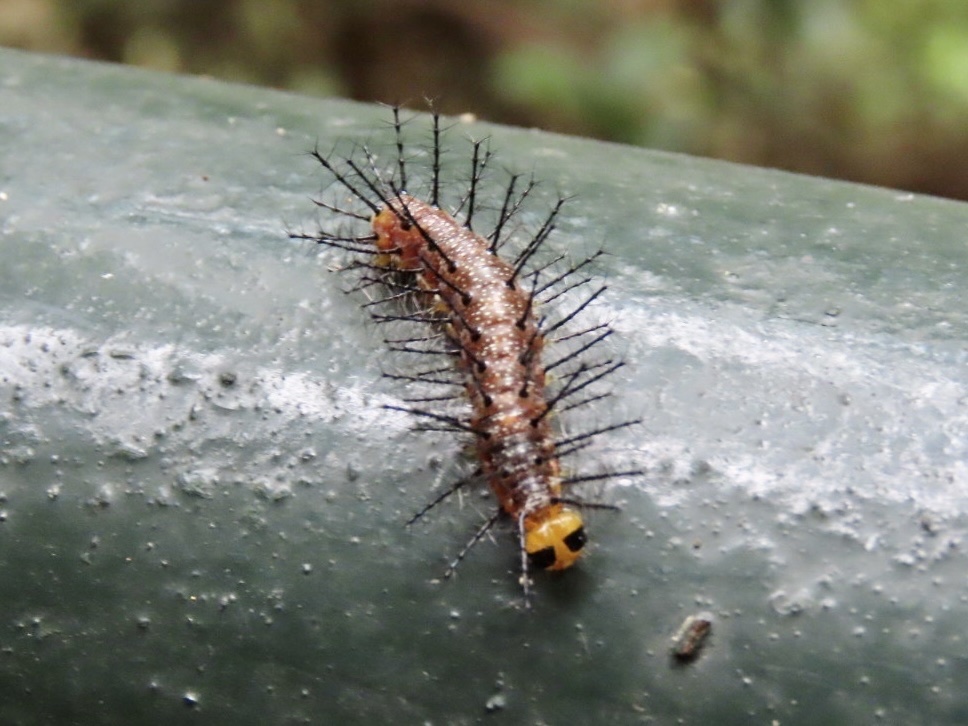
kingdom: Animalia
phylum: Arthropoda
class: Insecta
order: Lepidoptera
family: Nymphalidae
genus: Cupha
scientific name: Cupha erymanthis
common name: Rustic
